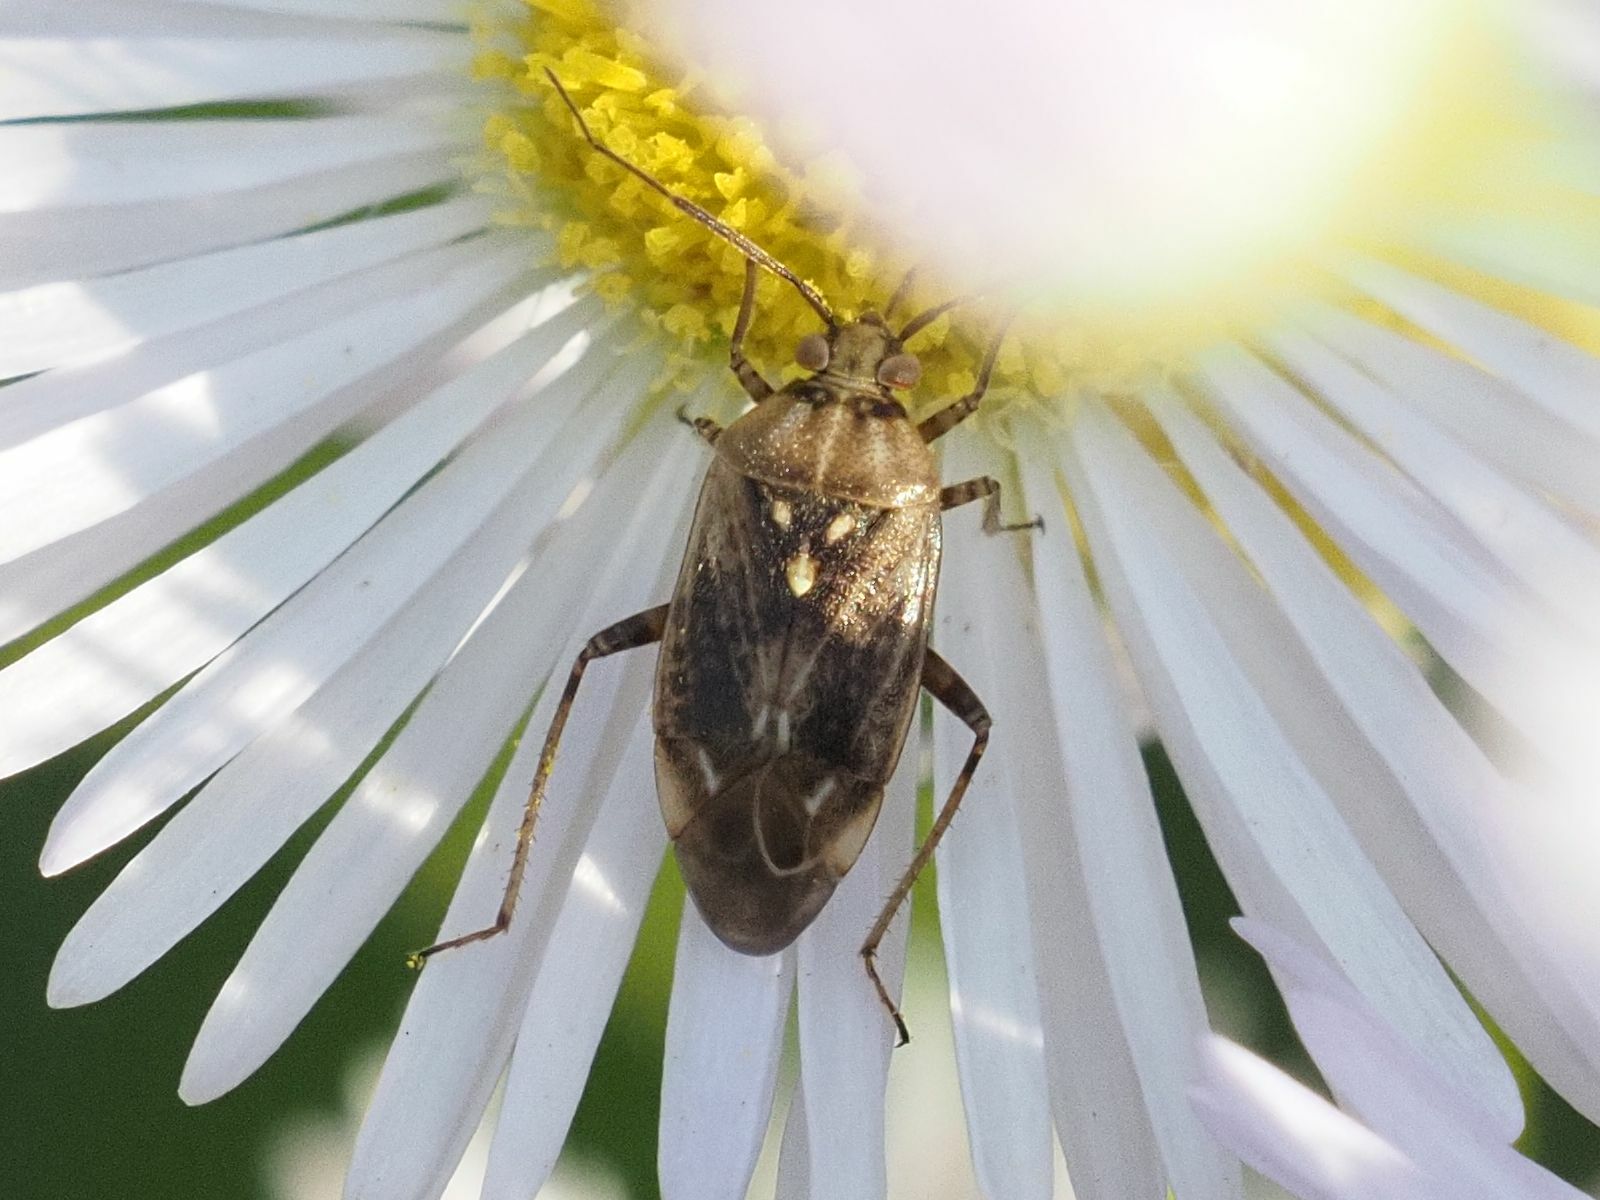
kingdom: Animalia
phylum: Arthropoda
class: Insecta
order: Hemiptera
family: Miridae
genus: Lygus
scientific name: Lygus rugulipennis
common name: European tarnished plant bug
